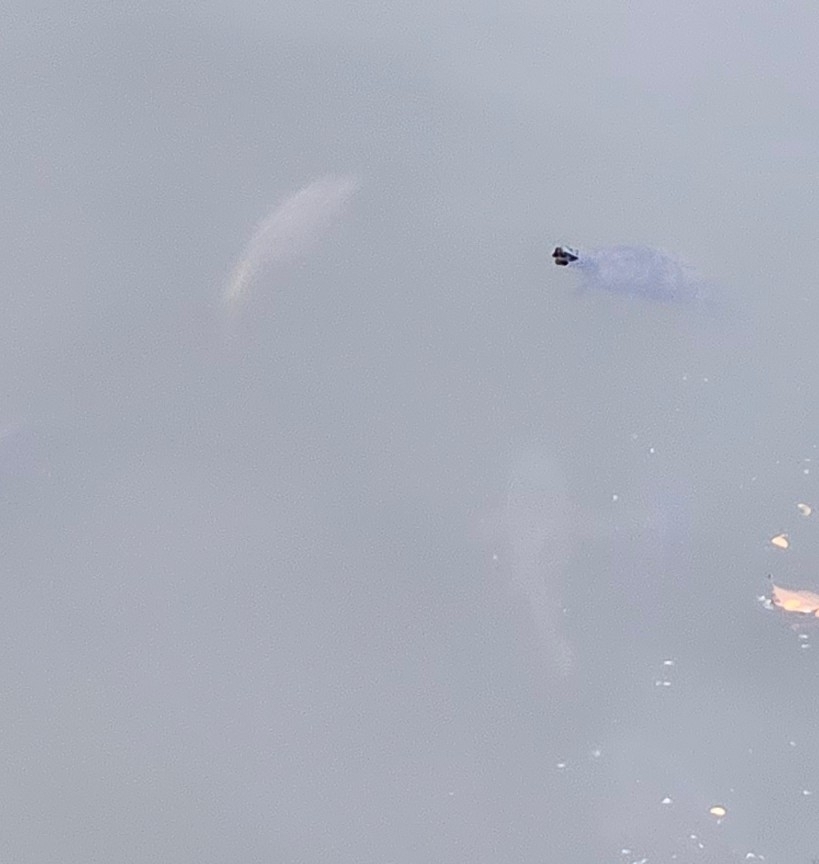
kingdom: Animalia
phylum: Chordata
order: Cypriniformes
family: Cyprinidae
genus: Cyprinus
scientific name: Cyprinus carpio
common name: Common carp
